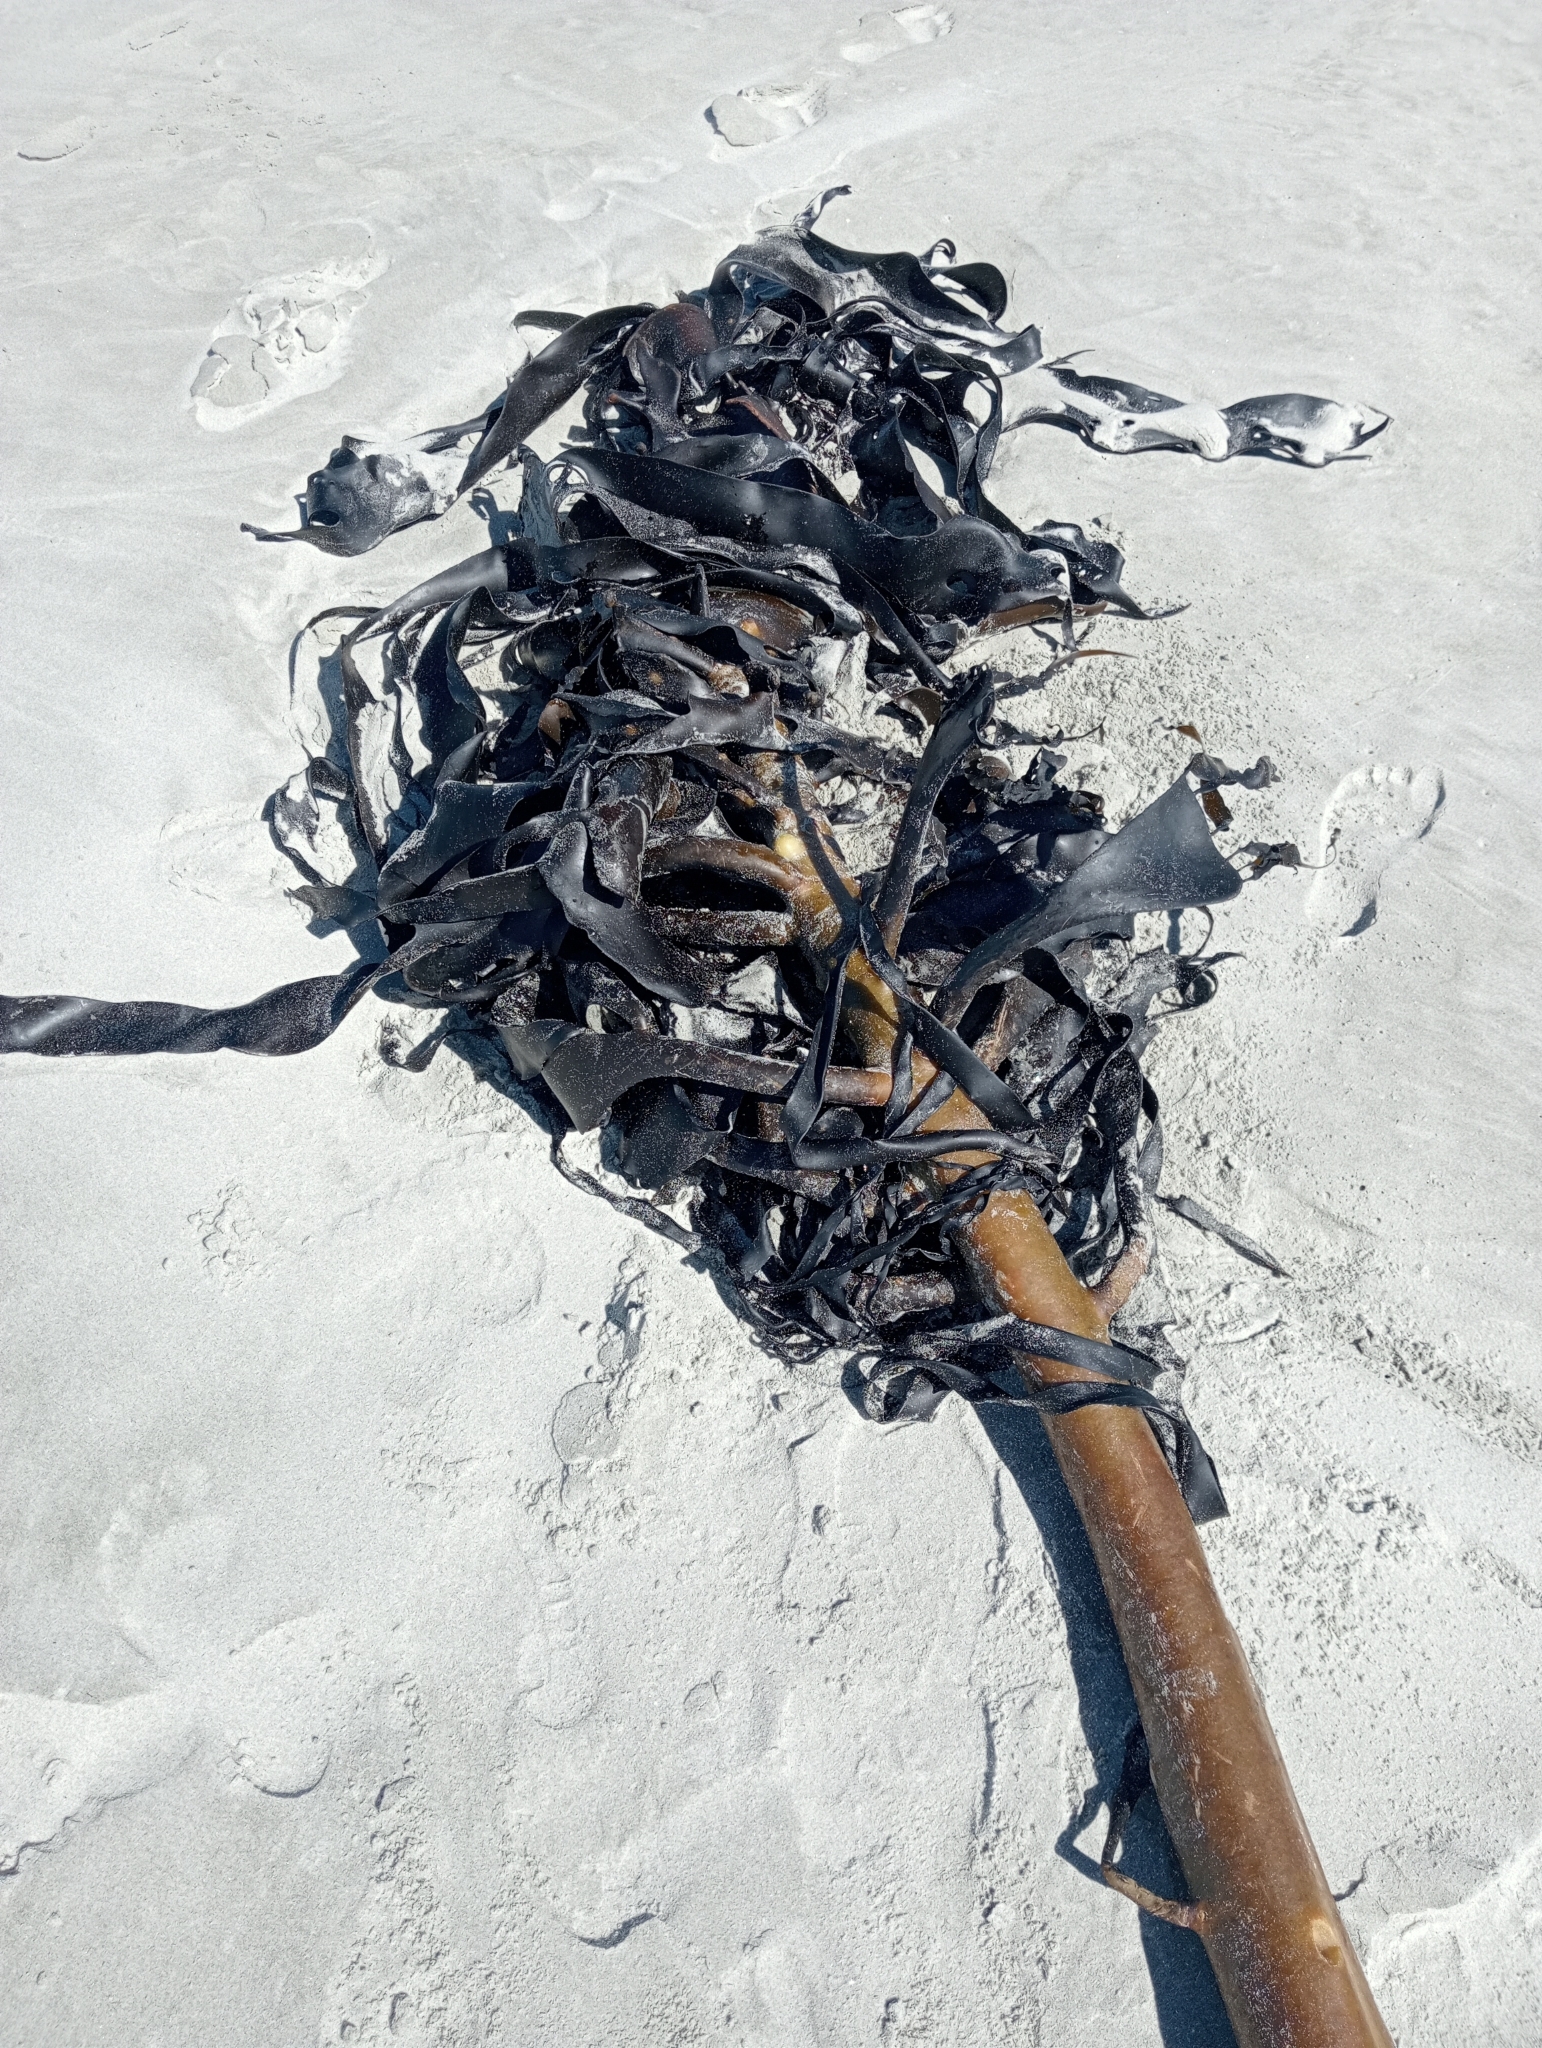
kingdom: Chromista
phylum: Ochrophyta
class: Phaeophyceae
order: Fucales
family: Durvillaeaceae
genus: Durvillaea
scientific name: Durvillaea willana
